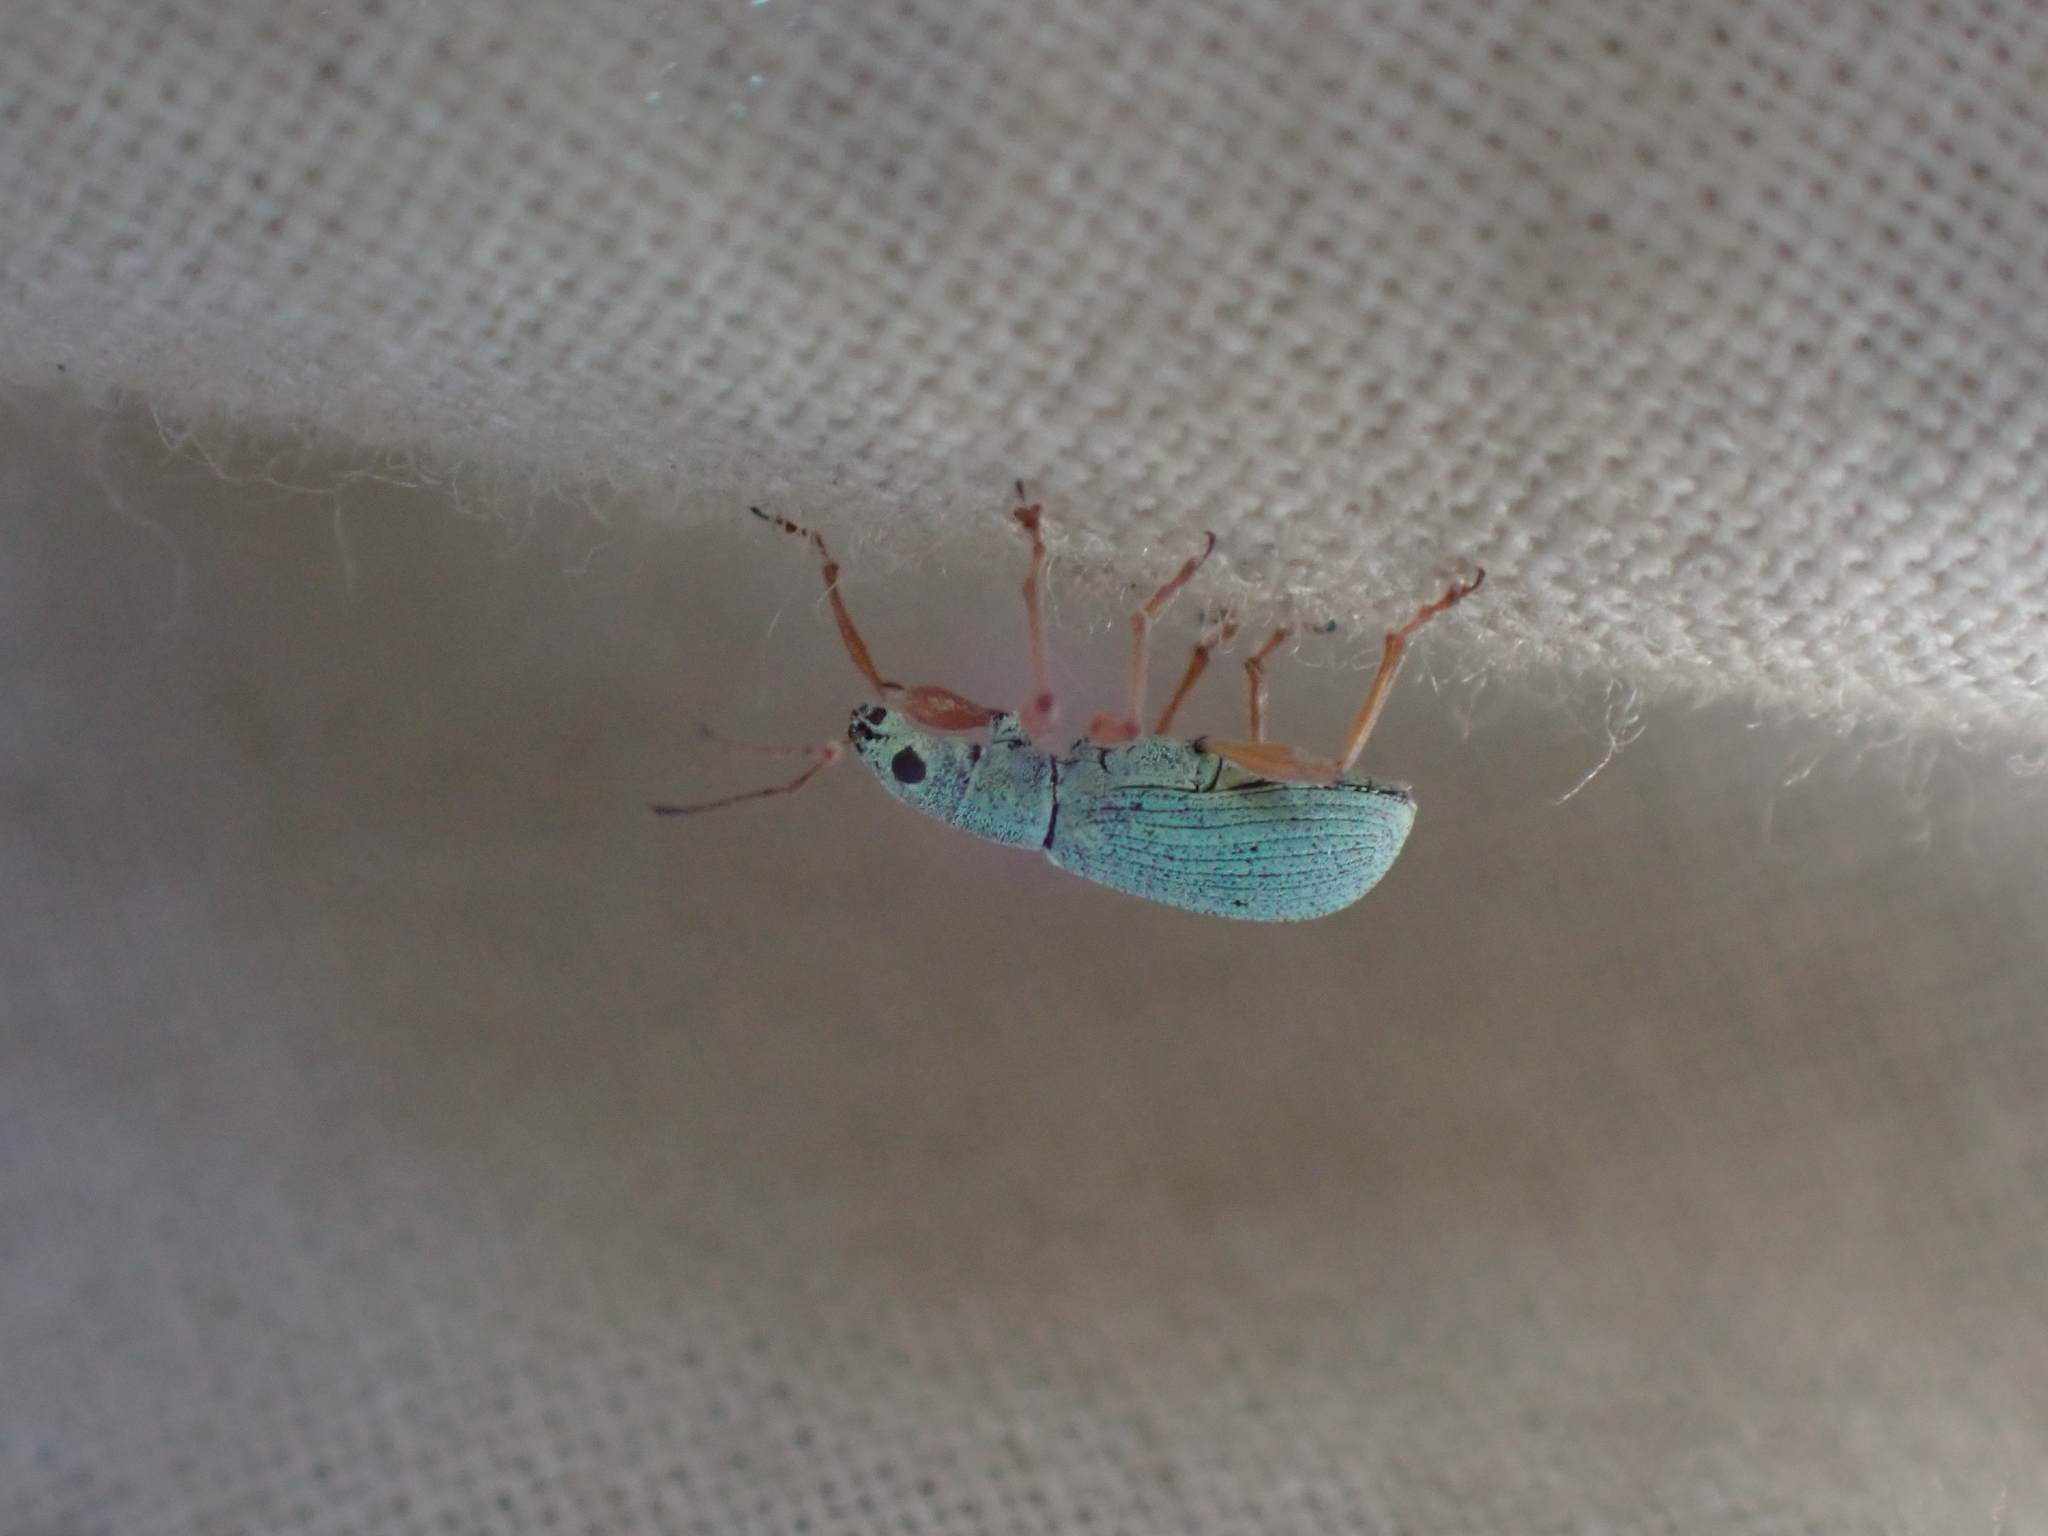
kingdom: Animalia
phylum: Arthropoda
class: Insecta
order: Coleoptera
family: Curculionidae
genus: Polydrusus
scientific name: Polydrusus impressifrons
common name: Weevil
